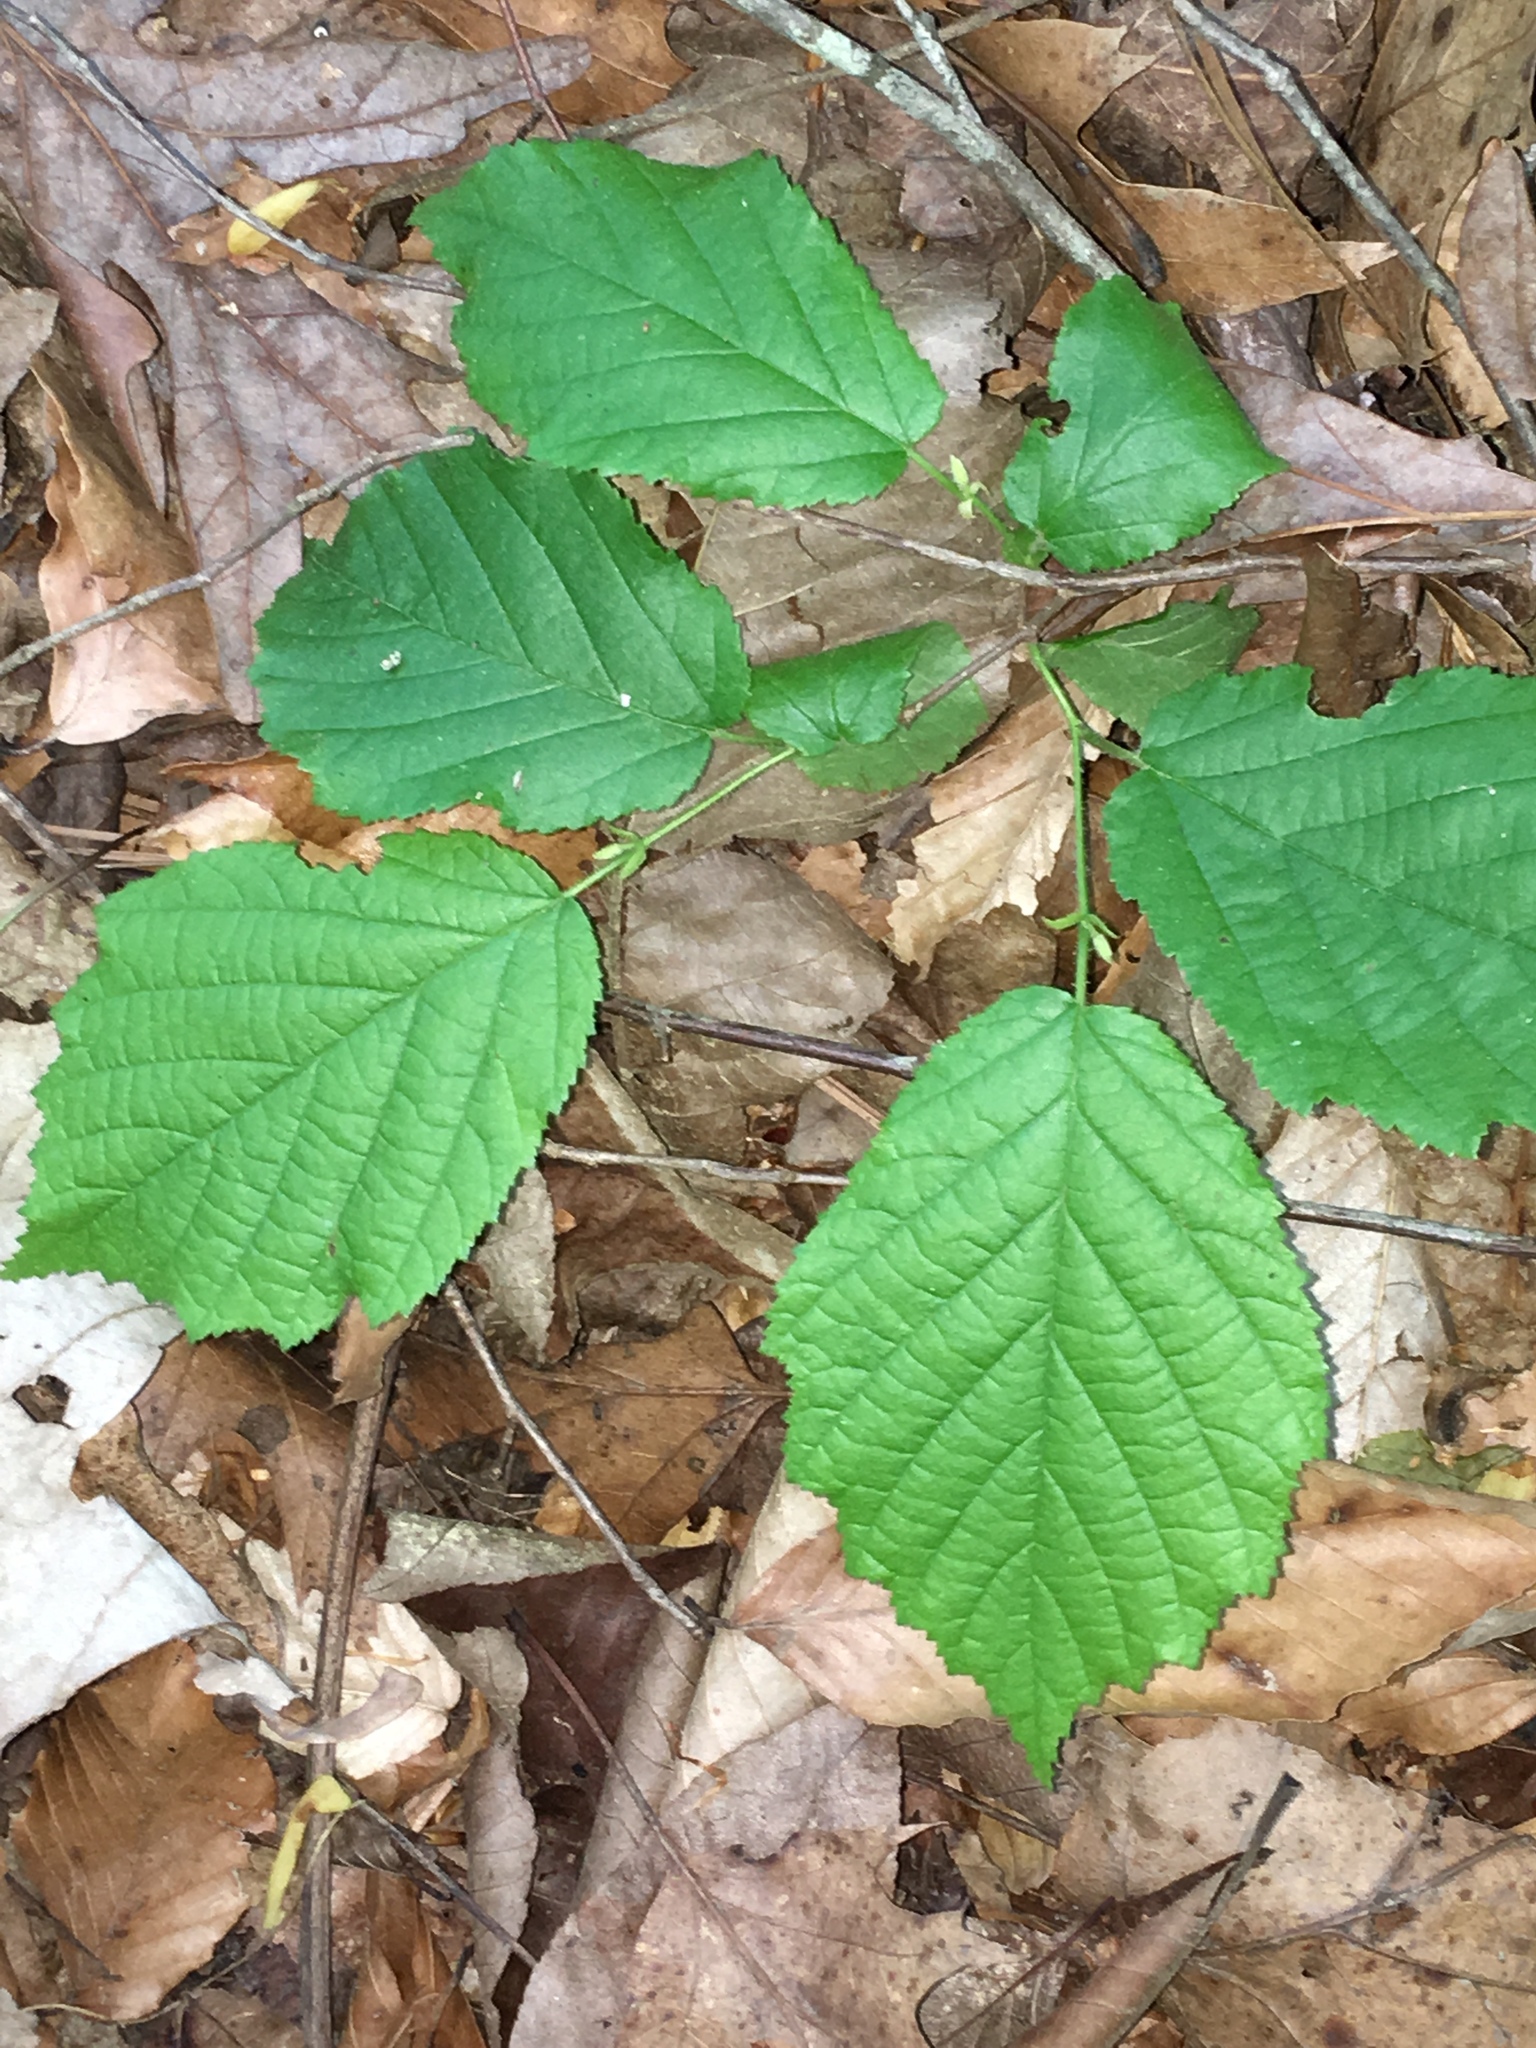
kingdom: Plantae
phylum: Tracheophyta
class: Magnoliopsida
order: Fagales
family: Betulaceae
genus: Corylus
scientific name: Corylus americana
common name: American hazel
